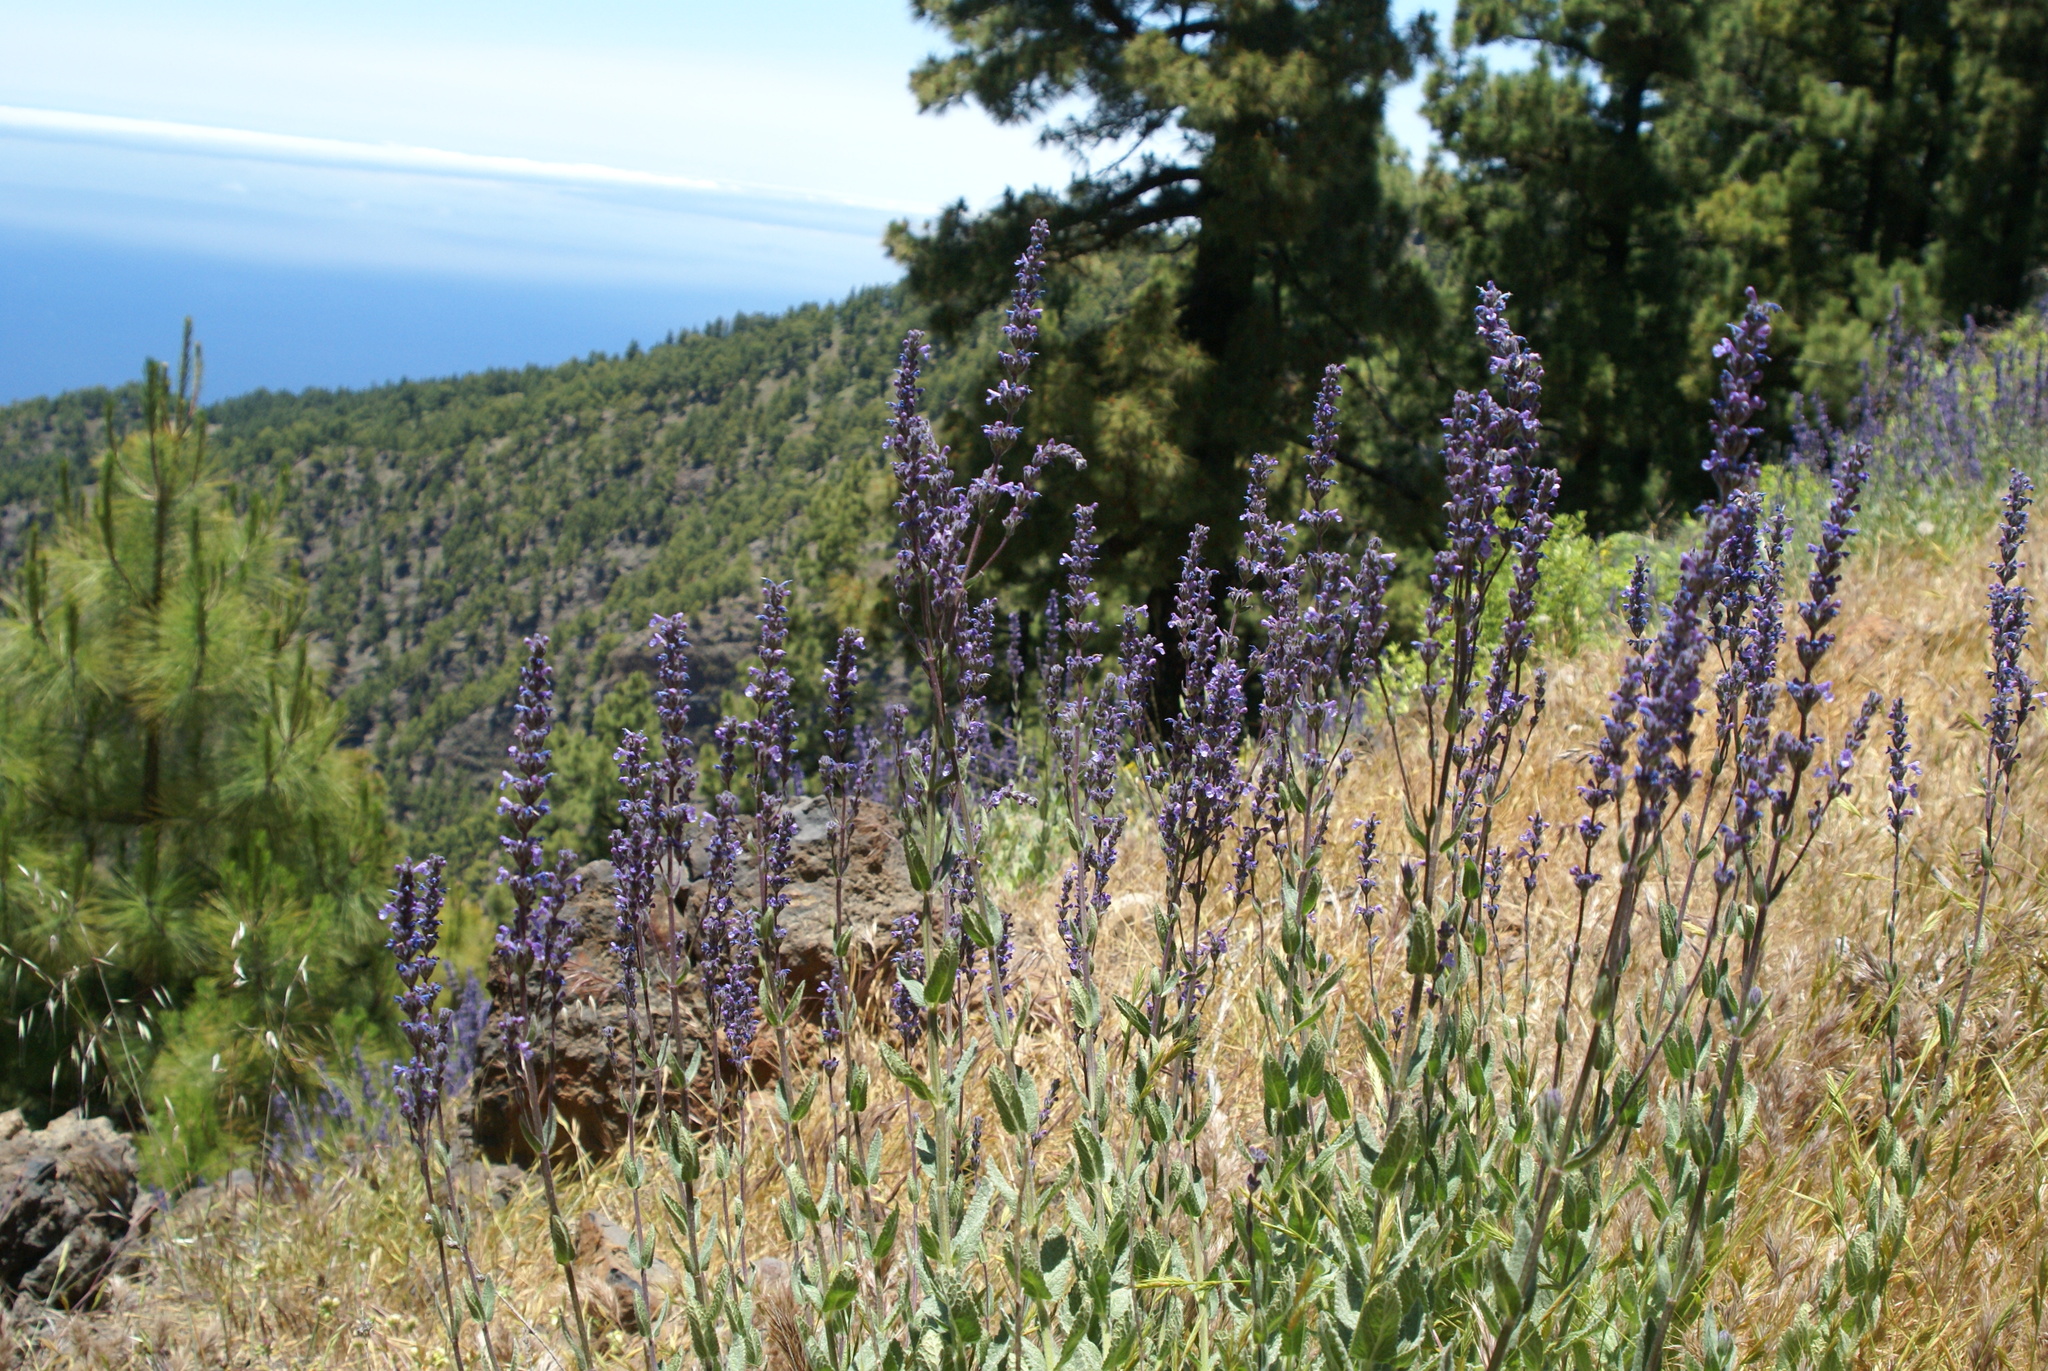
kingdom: Plantae
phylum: Tracheophyta
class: Magnoliopsida
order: Lamiales
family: Lamiaceae
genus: Nepeta
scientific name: Nepeta teydea
